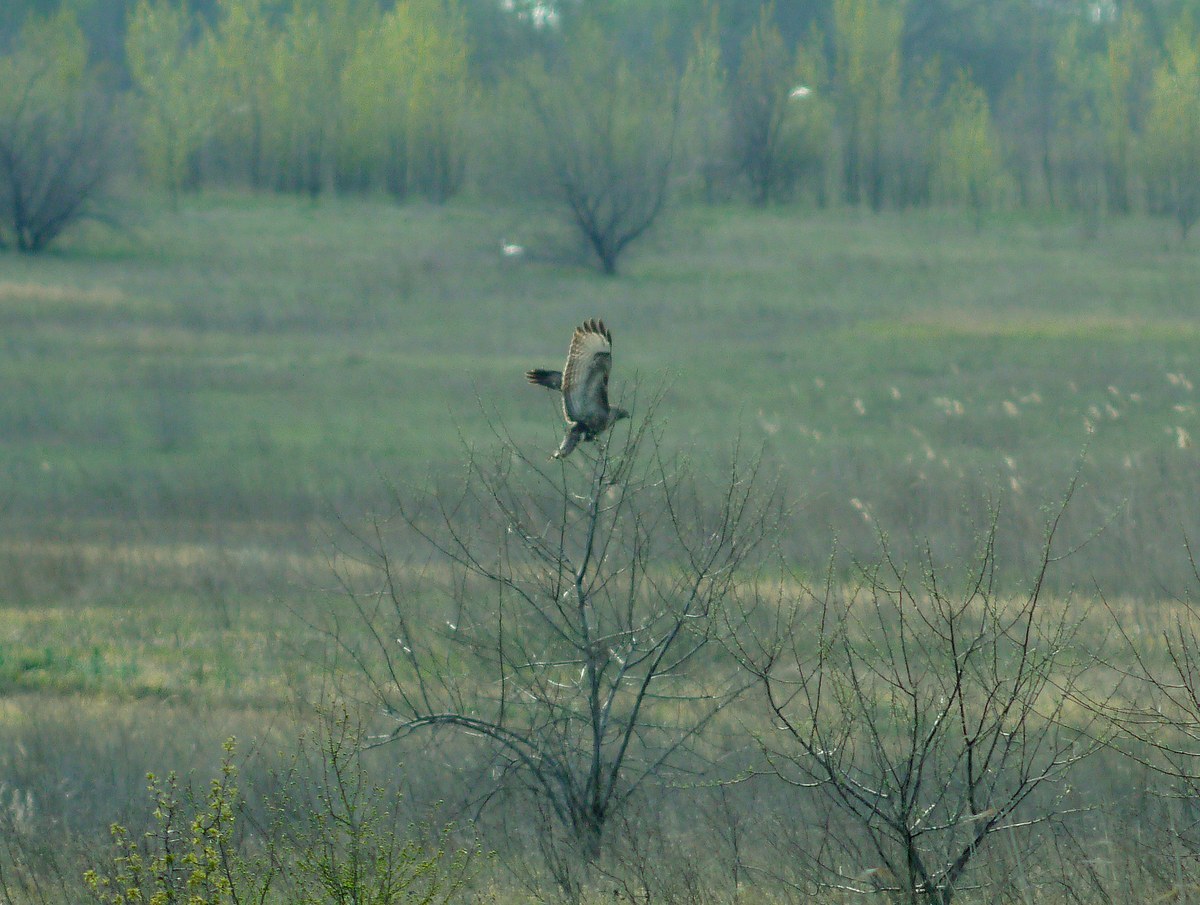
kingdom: Animalia
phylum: Chordata
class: Aves
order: Accipitriformes
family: Accipitridae
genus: Buteo
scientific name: Buteo buteo
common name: Common buzzard
